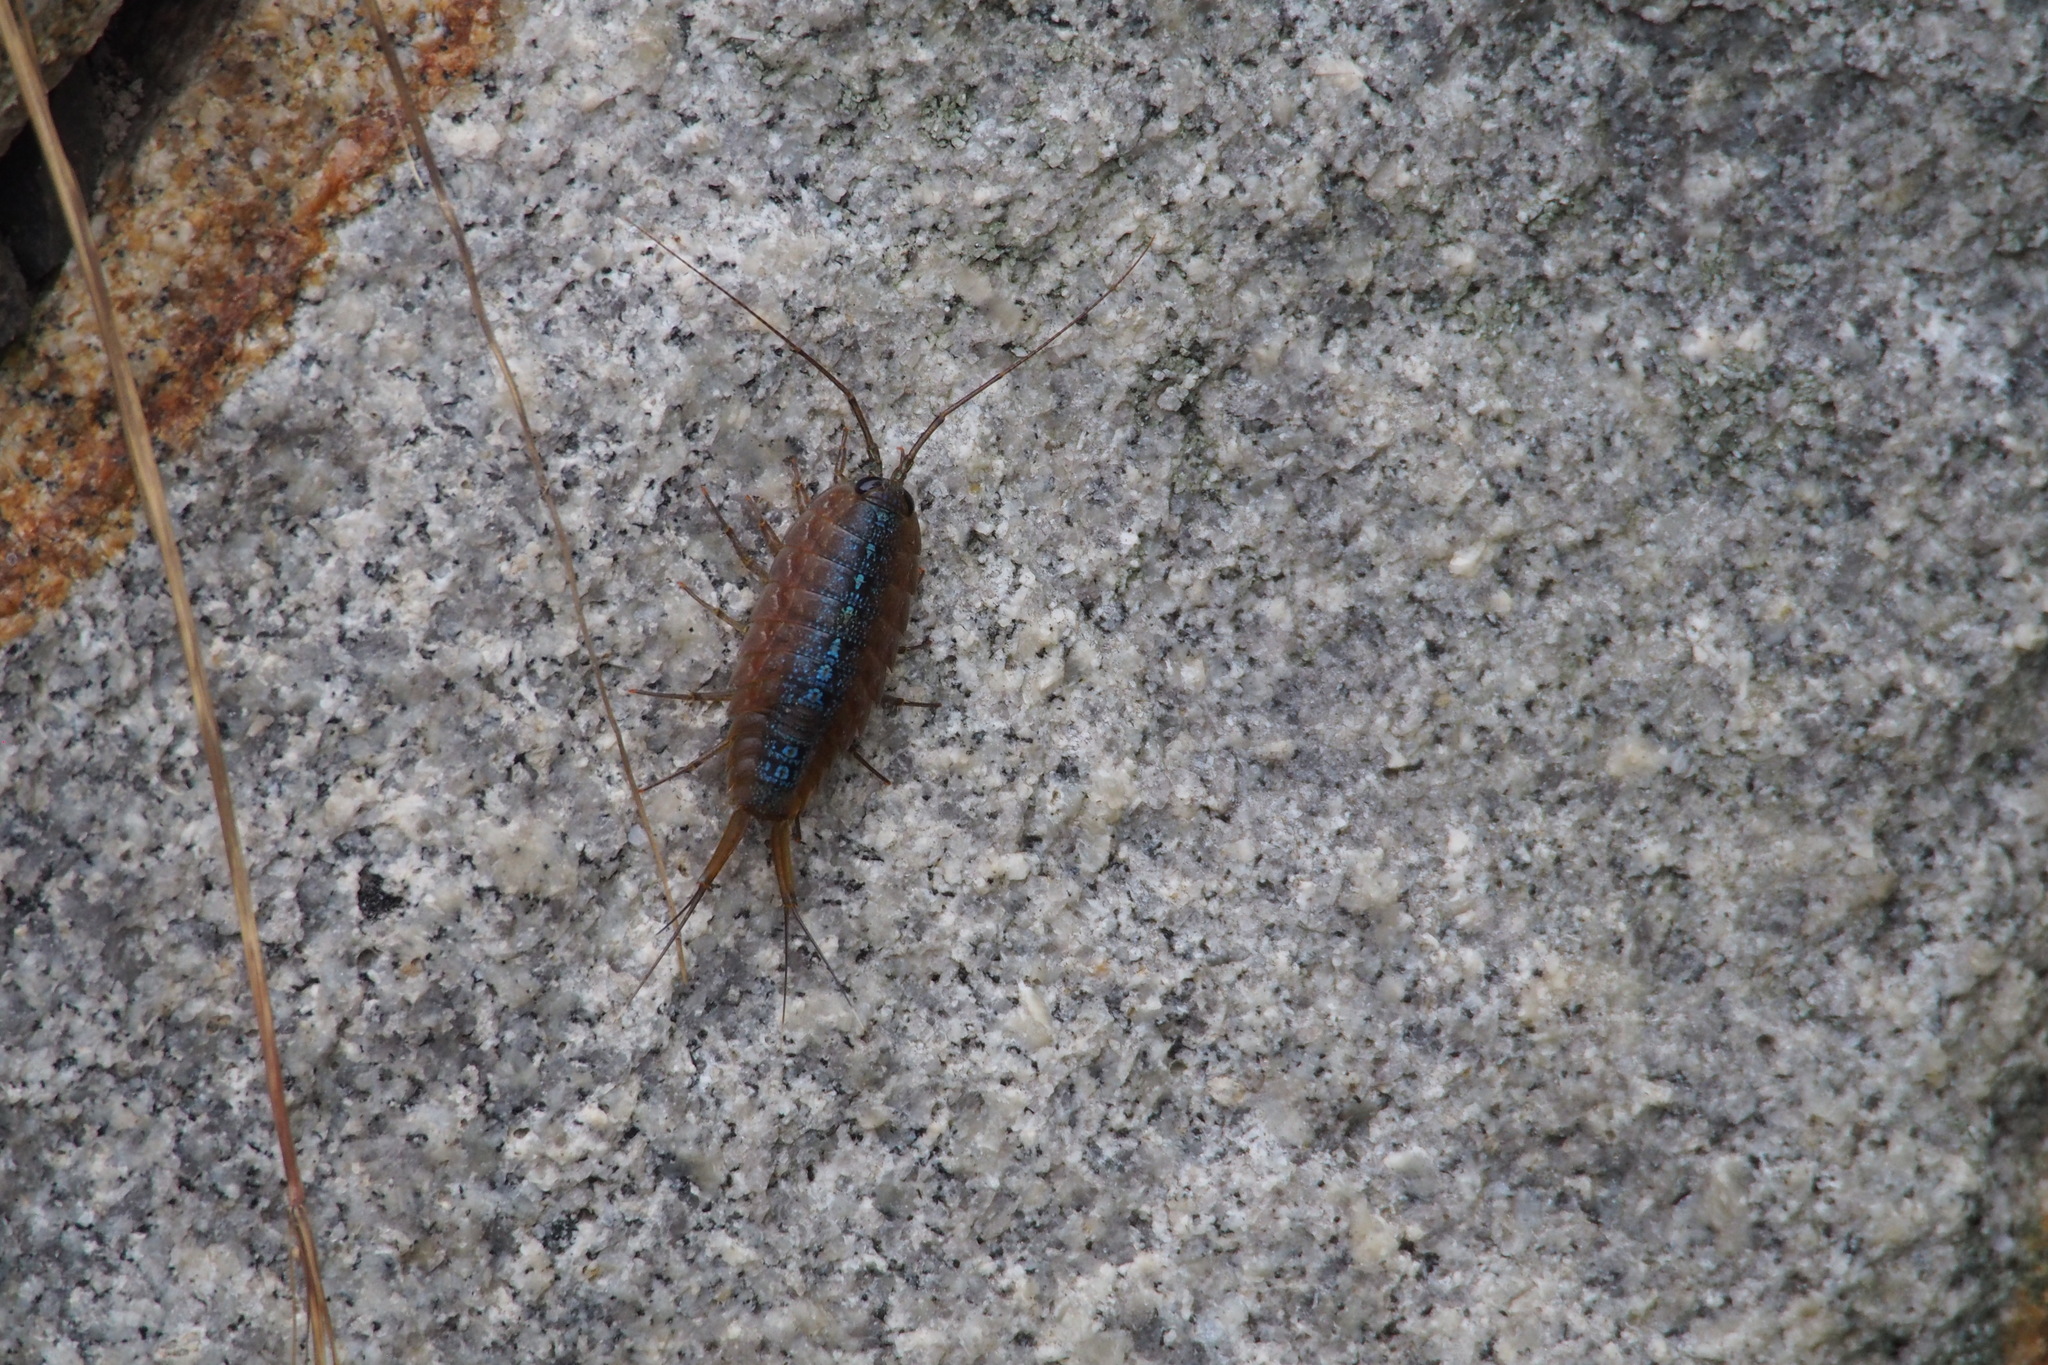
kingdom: Animalia
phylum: Arthropoda
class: Malacostraca
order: Isopoda
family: Ligiidae
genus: Ligia
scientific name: Ligia exotica
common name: Wharf roach
